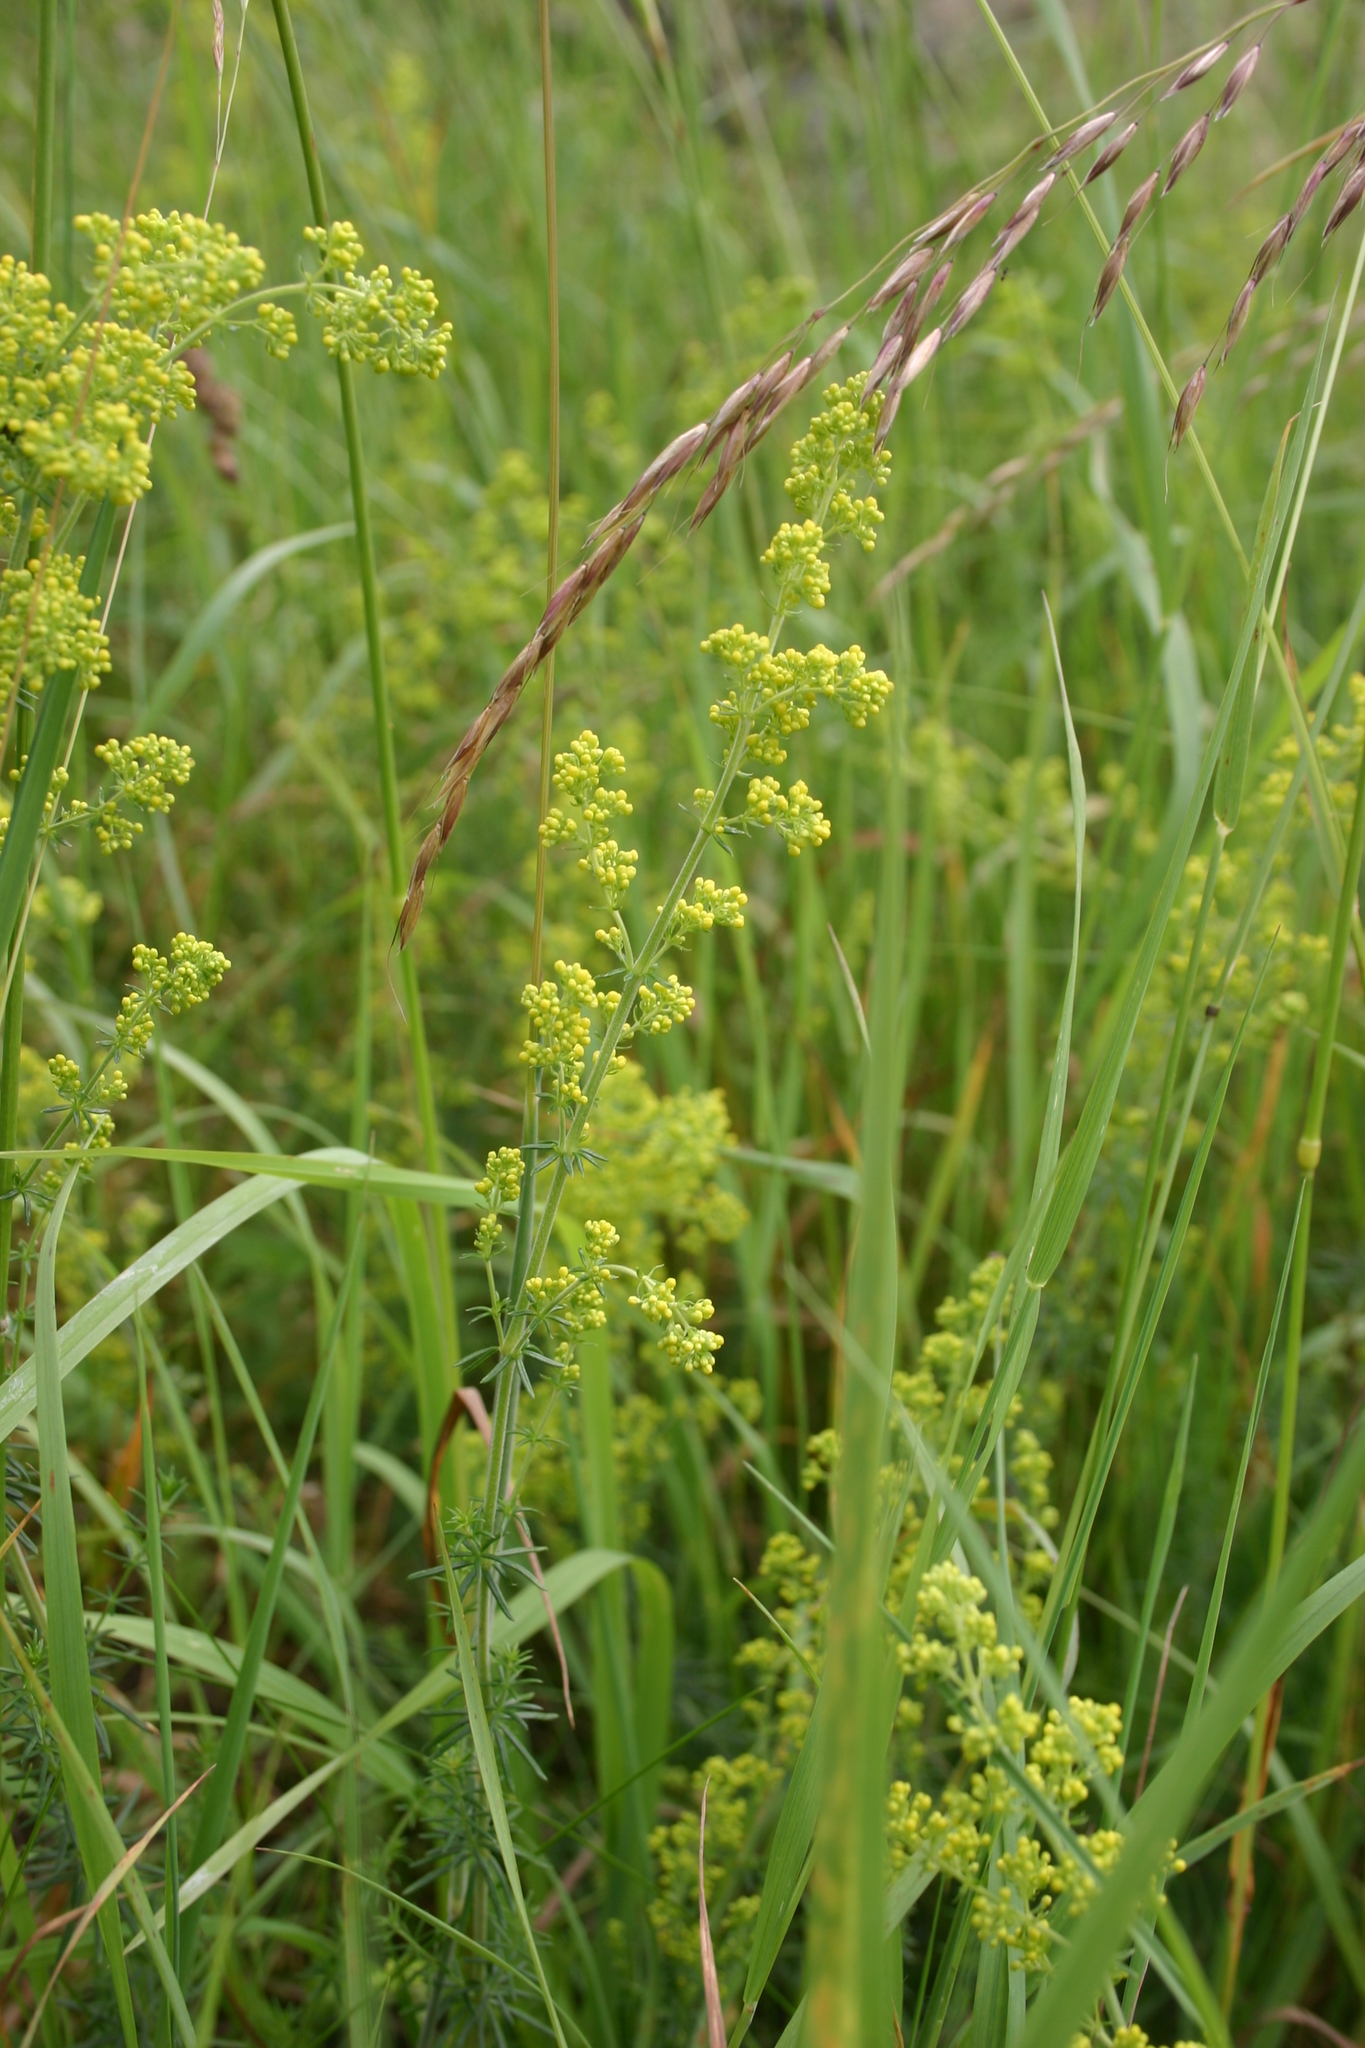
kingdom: Plantae
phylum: Tracheophyta
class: Magnoliopsida
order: Gentianales
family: Rubiaceae
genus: Galium
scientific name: Galium verum
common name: Lady's bedstraw
